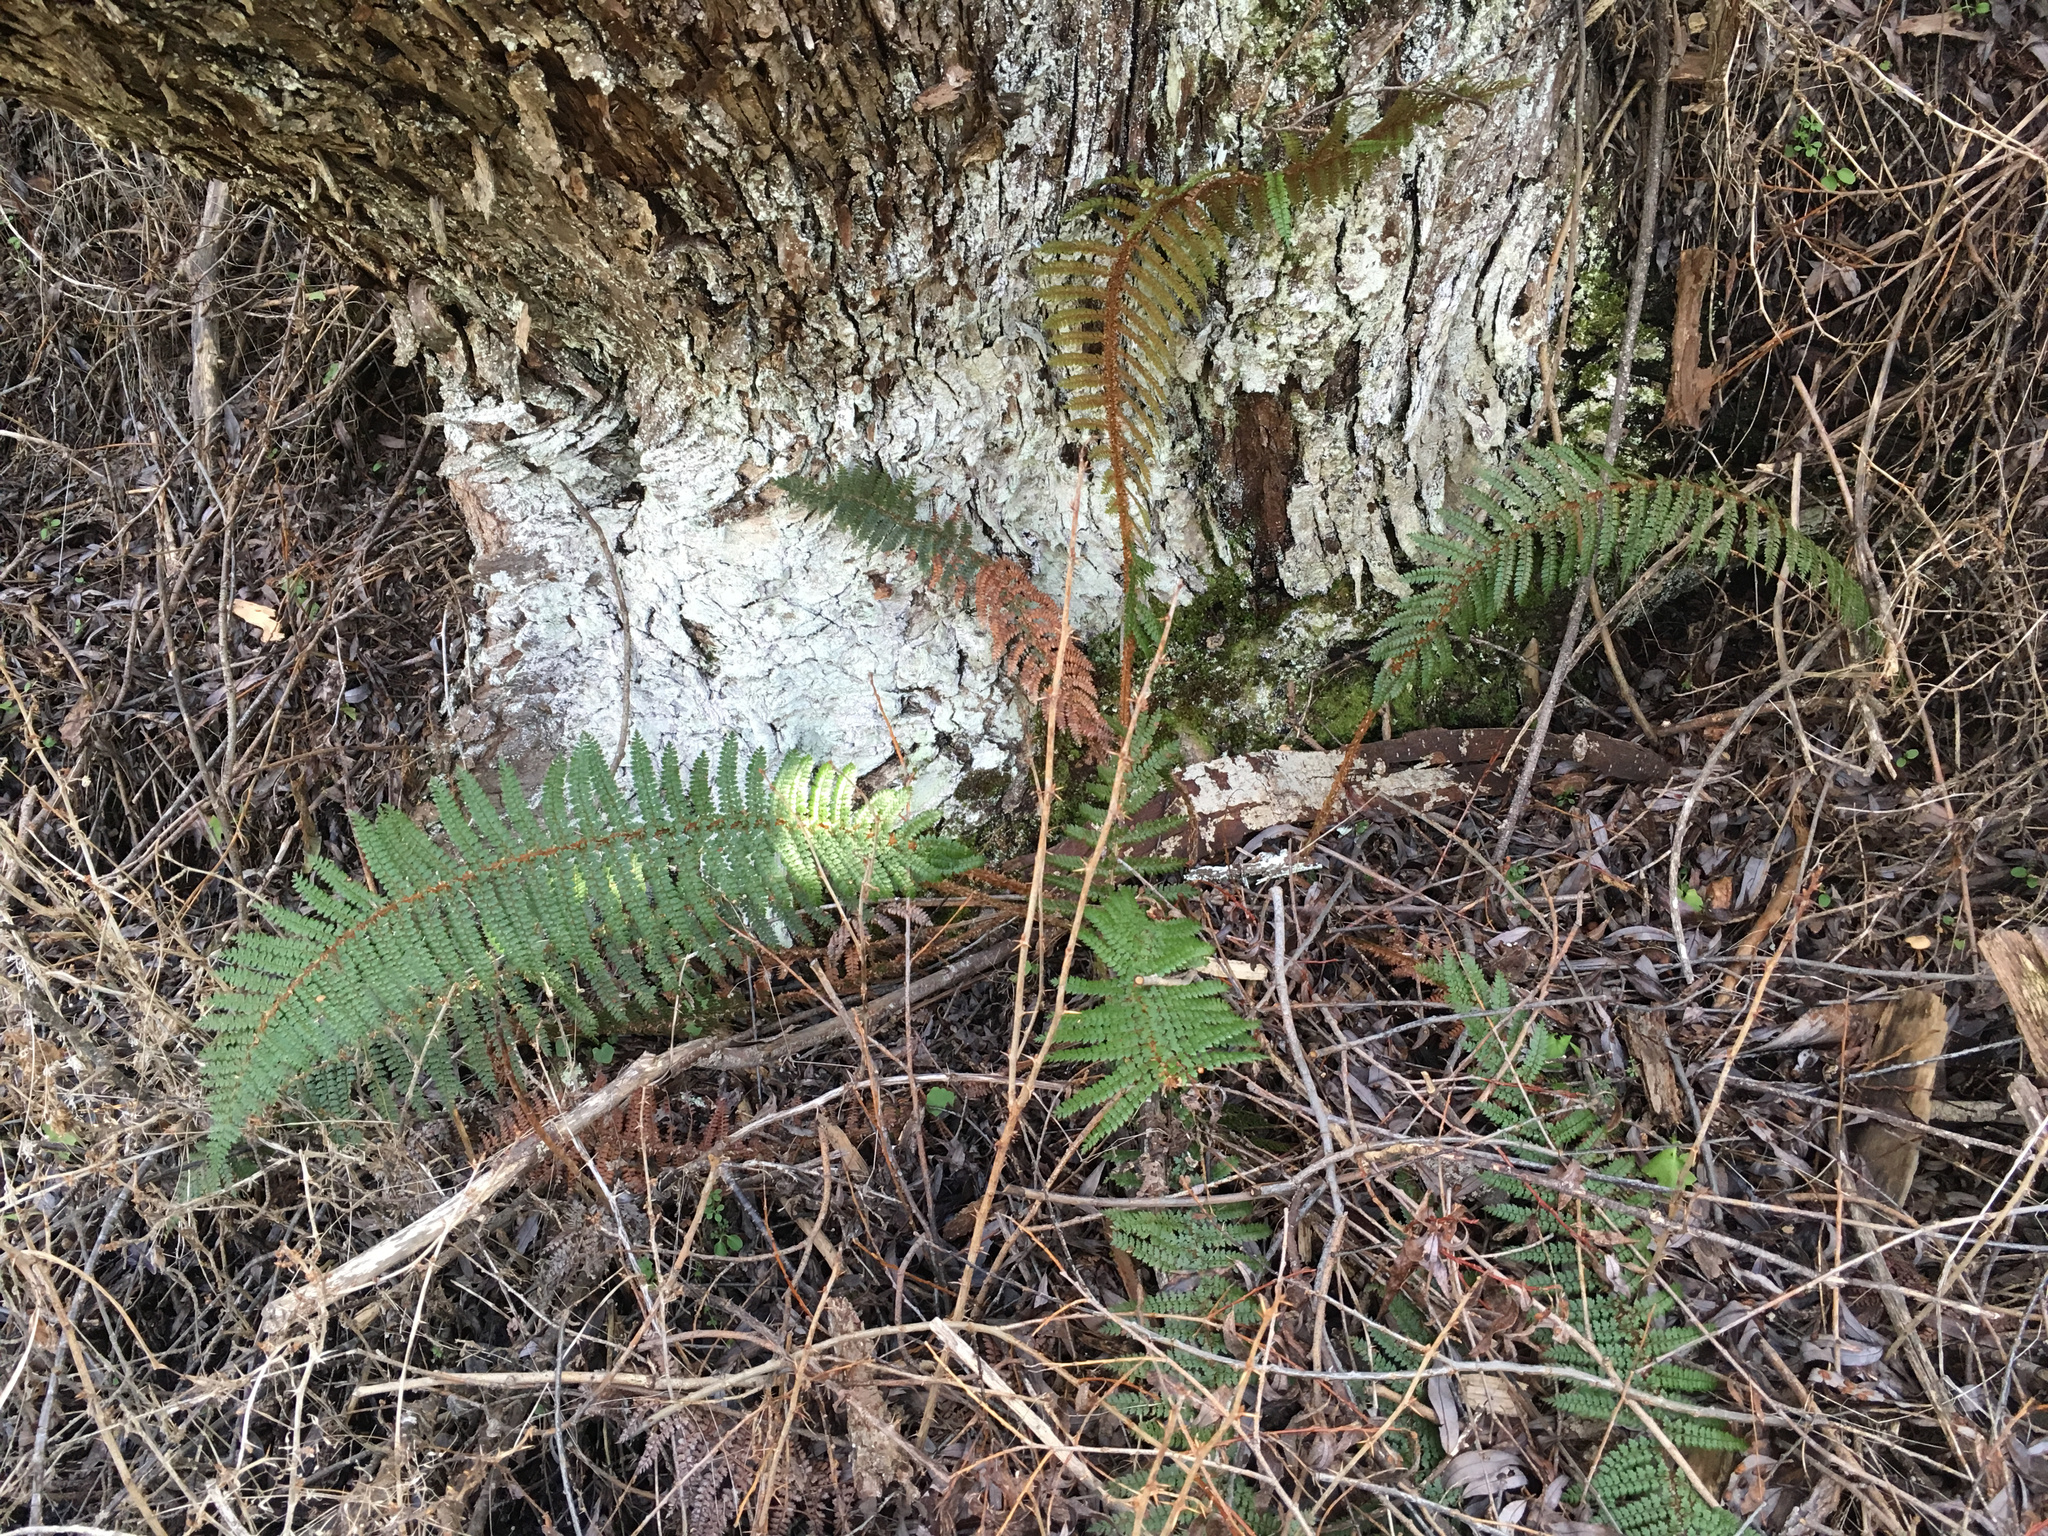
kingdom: Plantae
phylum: Tracheophyta
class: Polypodiopsida
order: Polypodiales
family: Dryopteridaceae
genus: Polystichum
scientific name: Polystichum vestitum
